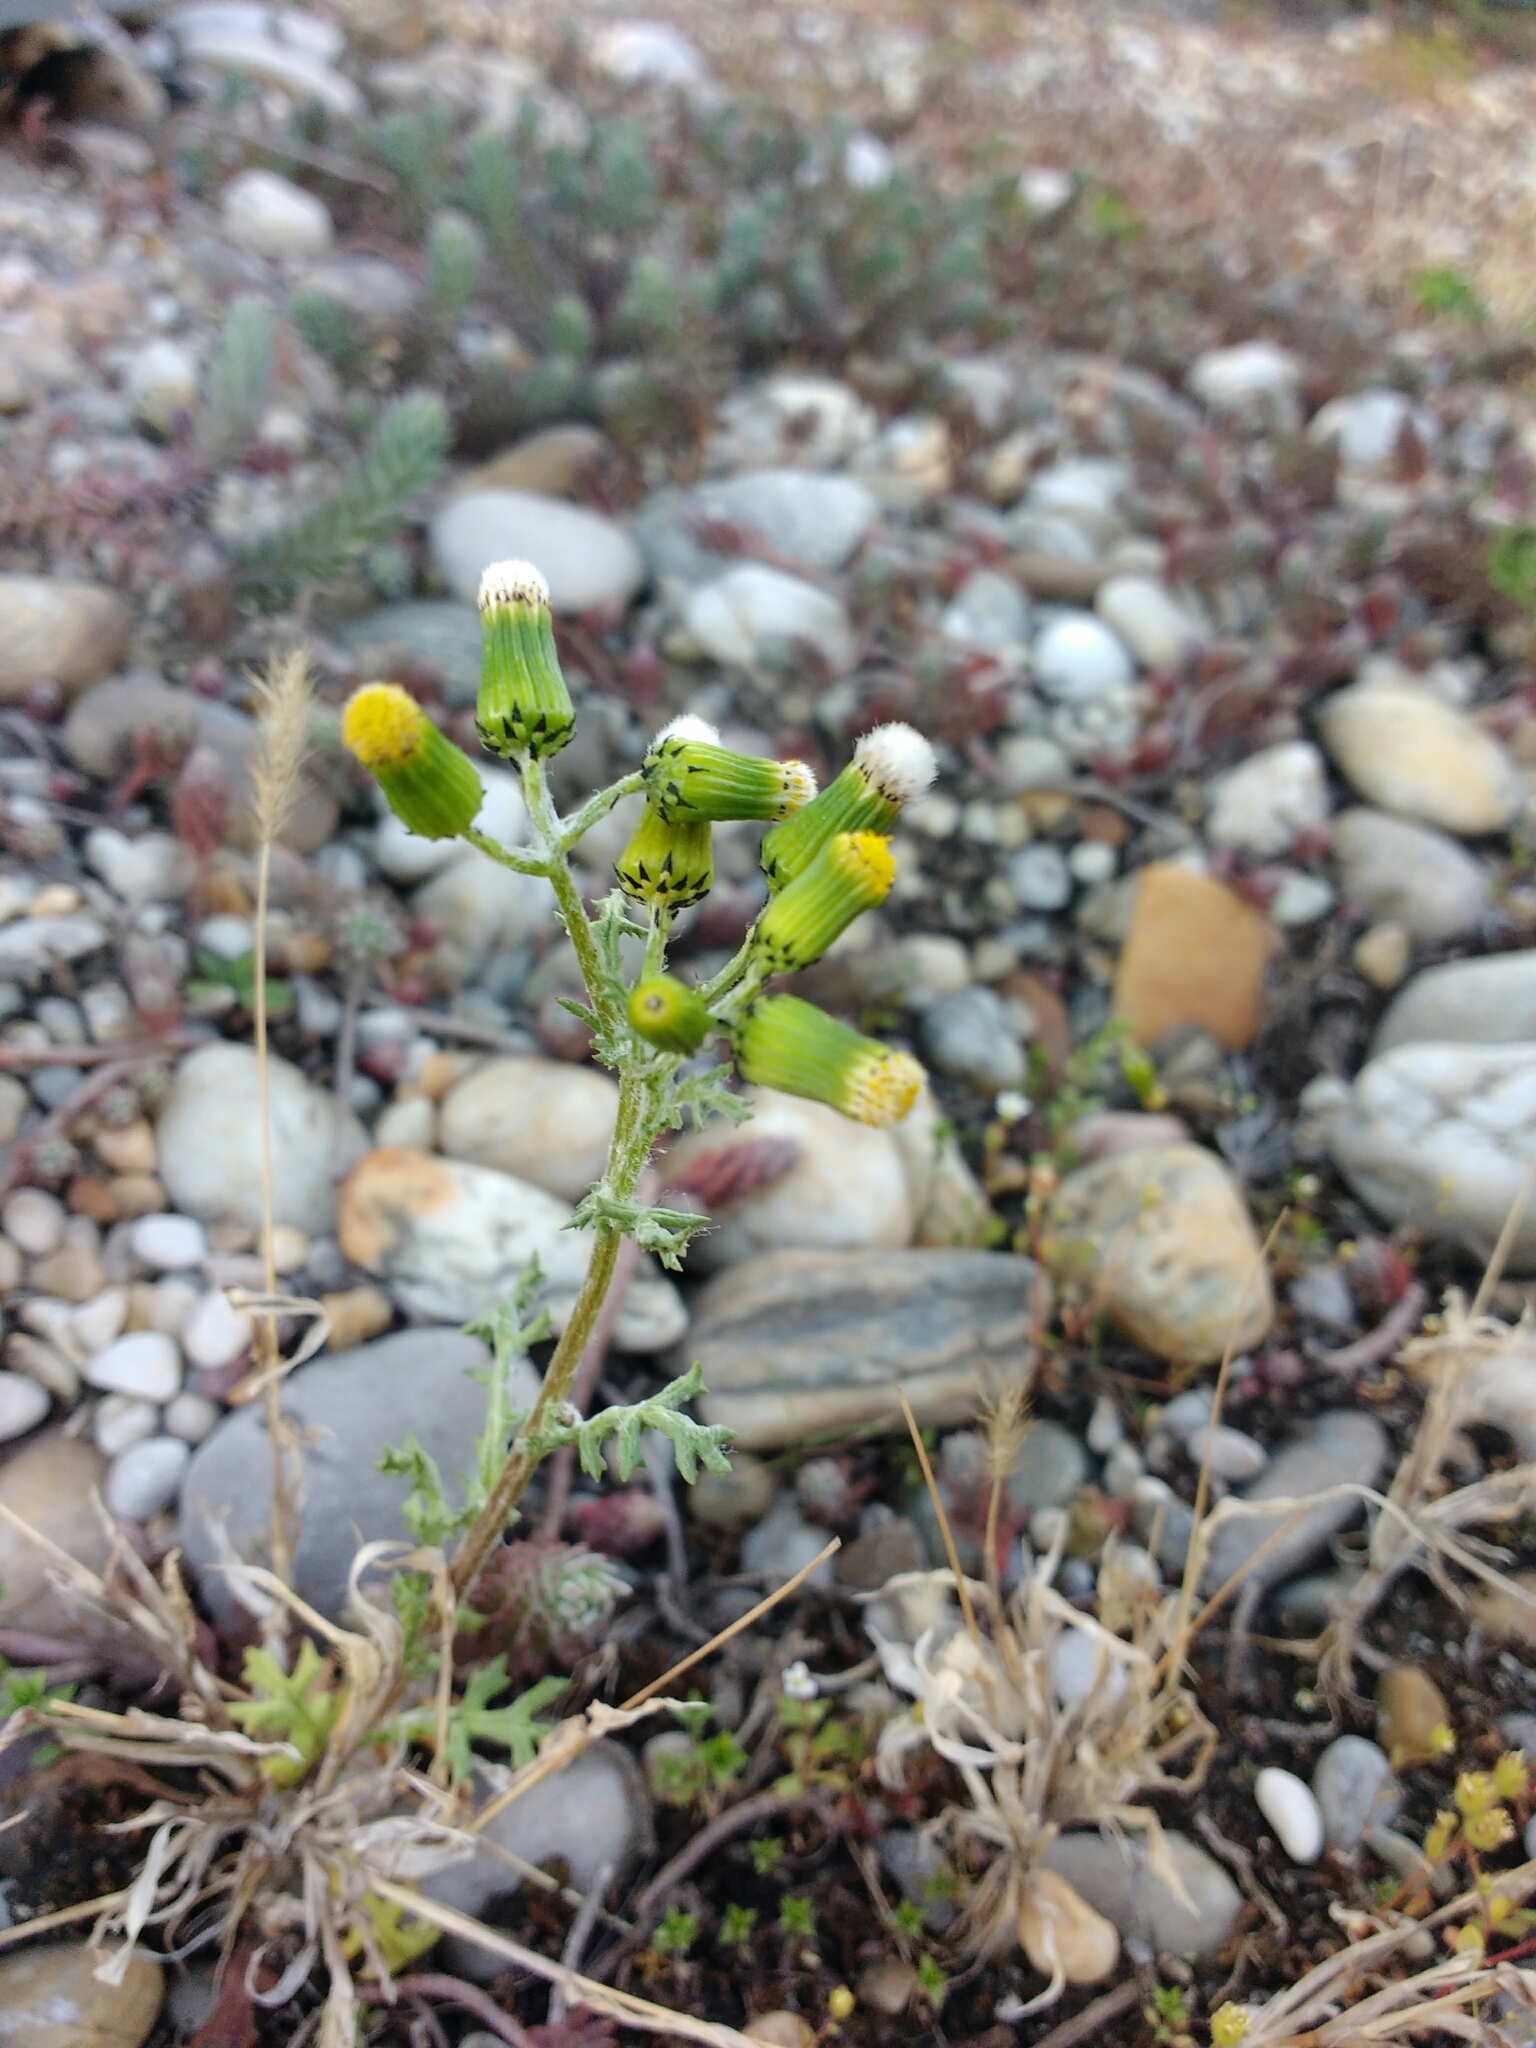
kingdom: Plantae
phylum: Tracheophyta
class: Magnoliopsida
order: Asterales
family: Asteraceae
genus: Senecio
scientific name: Senecio vulgaris
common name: Old-man-in-the-spring
